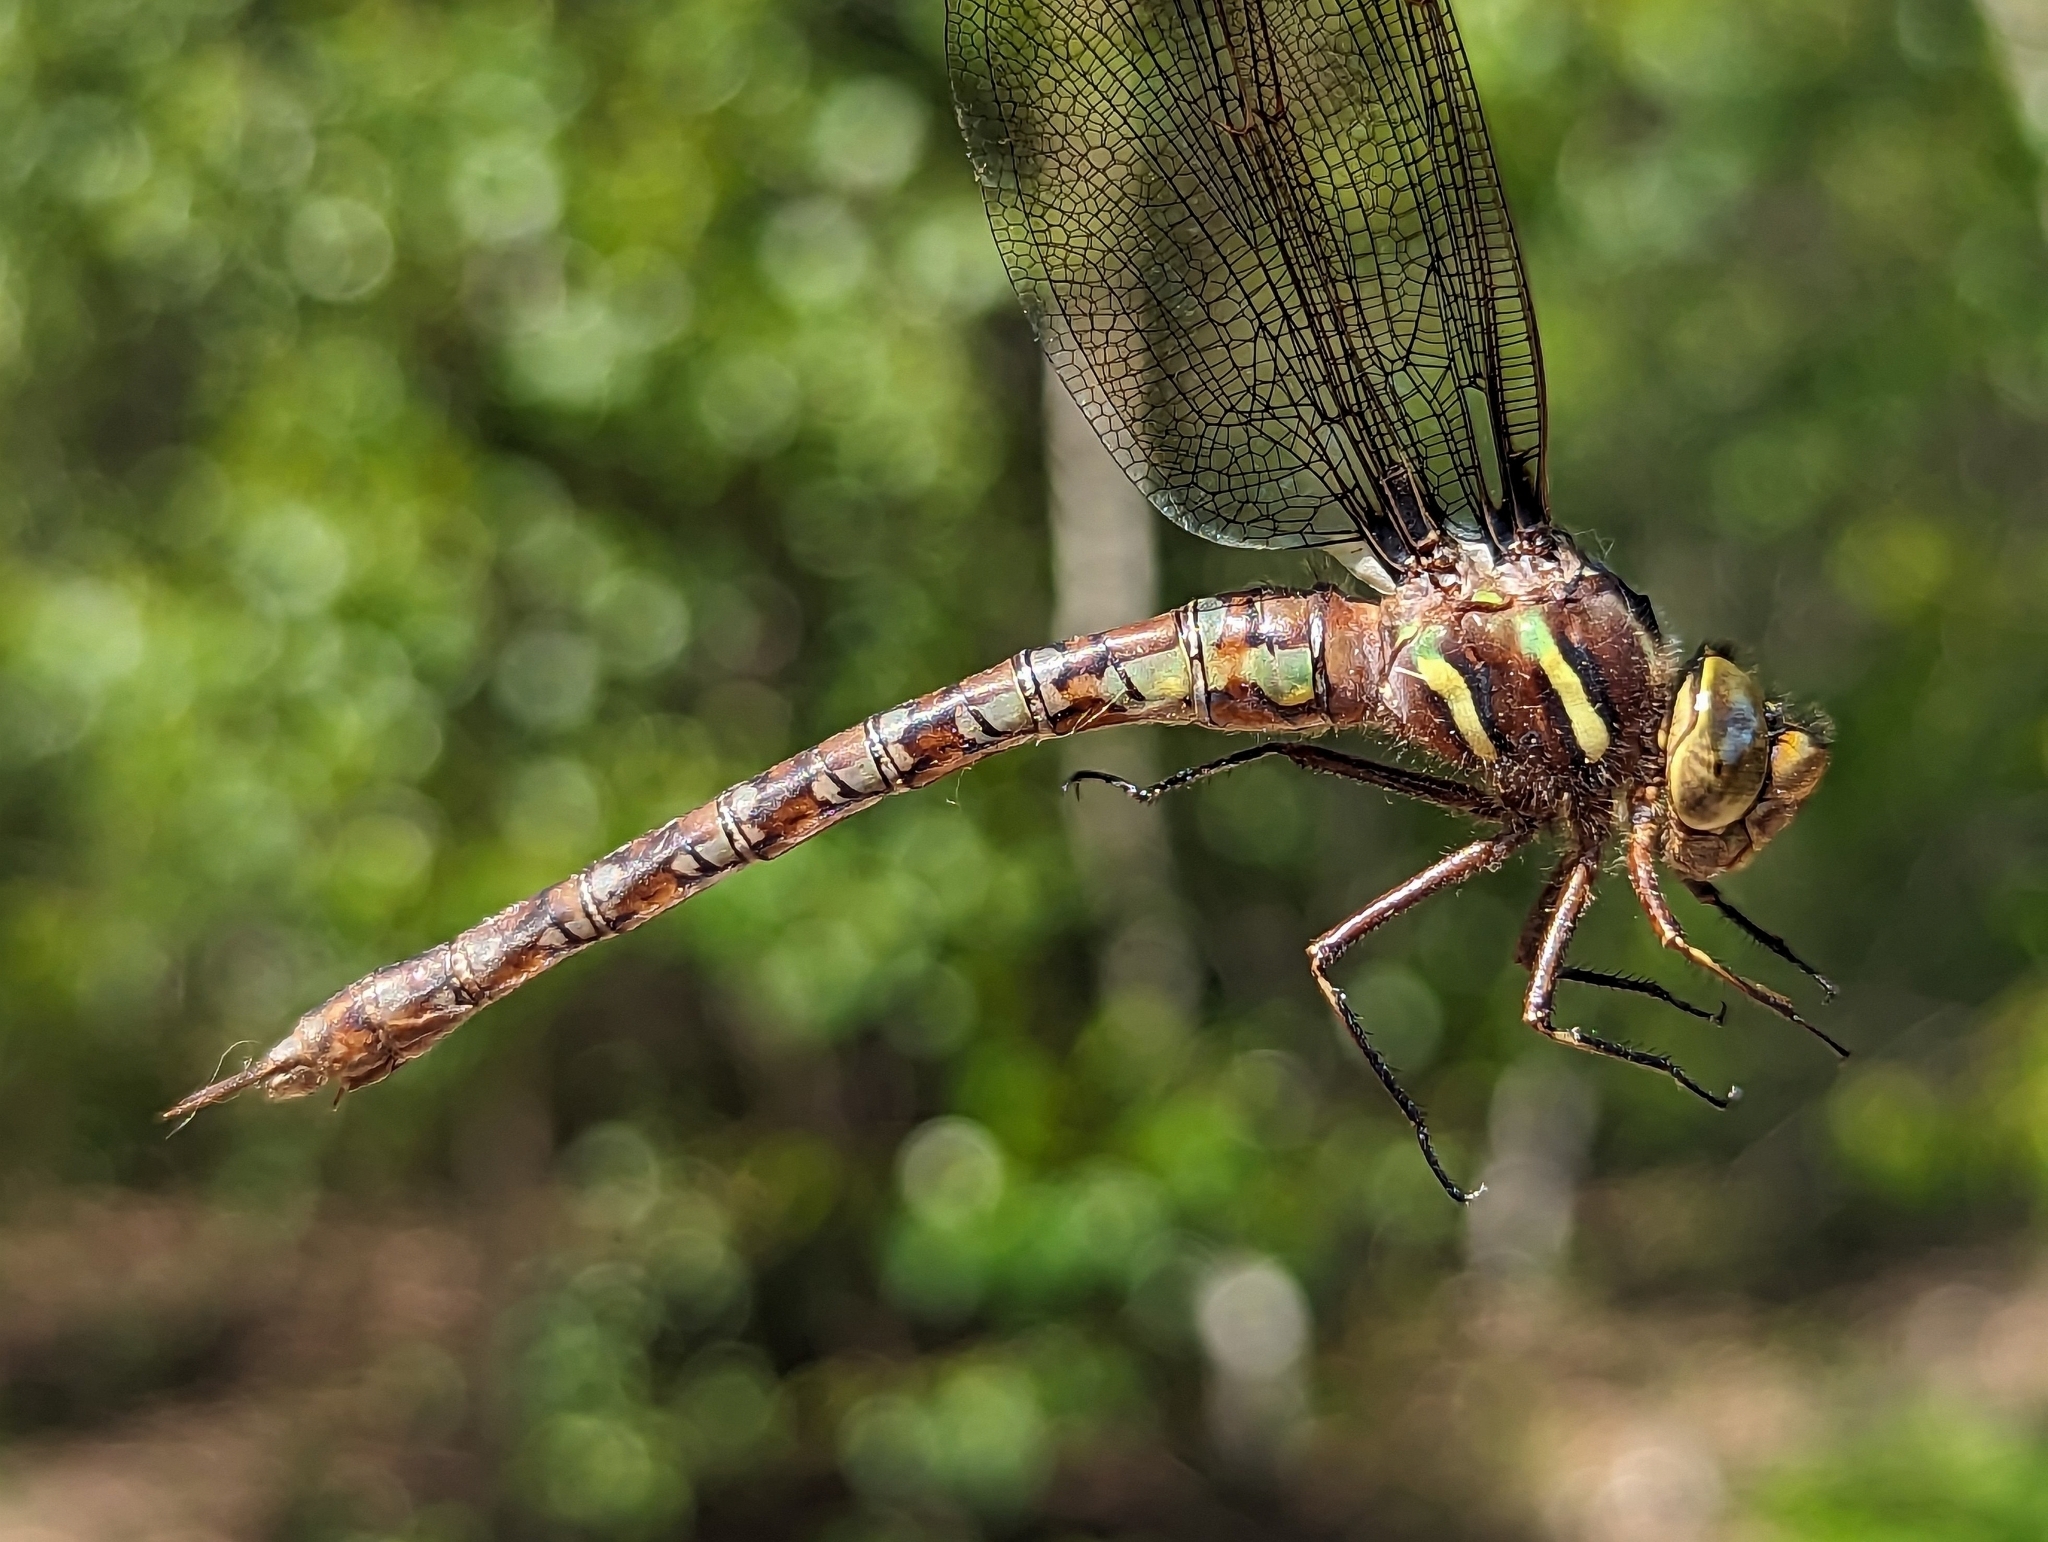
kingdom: Animalia
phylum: Arthropoda
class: Insecta
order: Odonata
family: Aeshnidae
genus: Basiaeschna
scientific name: Basiaeschna janata
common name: Springtime darner
